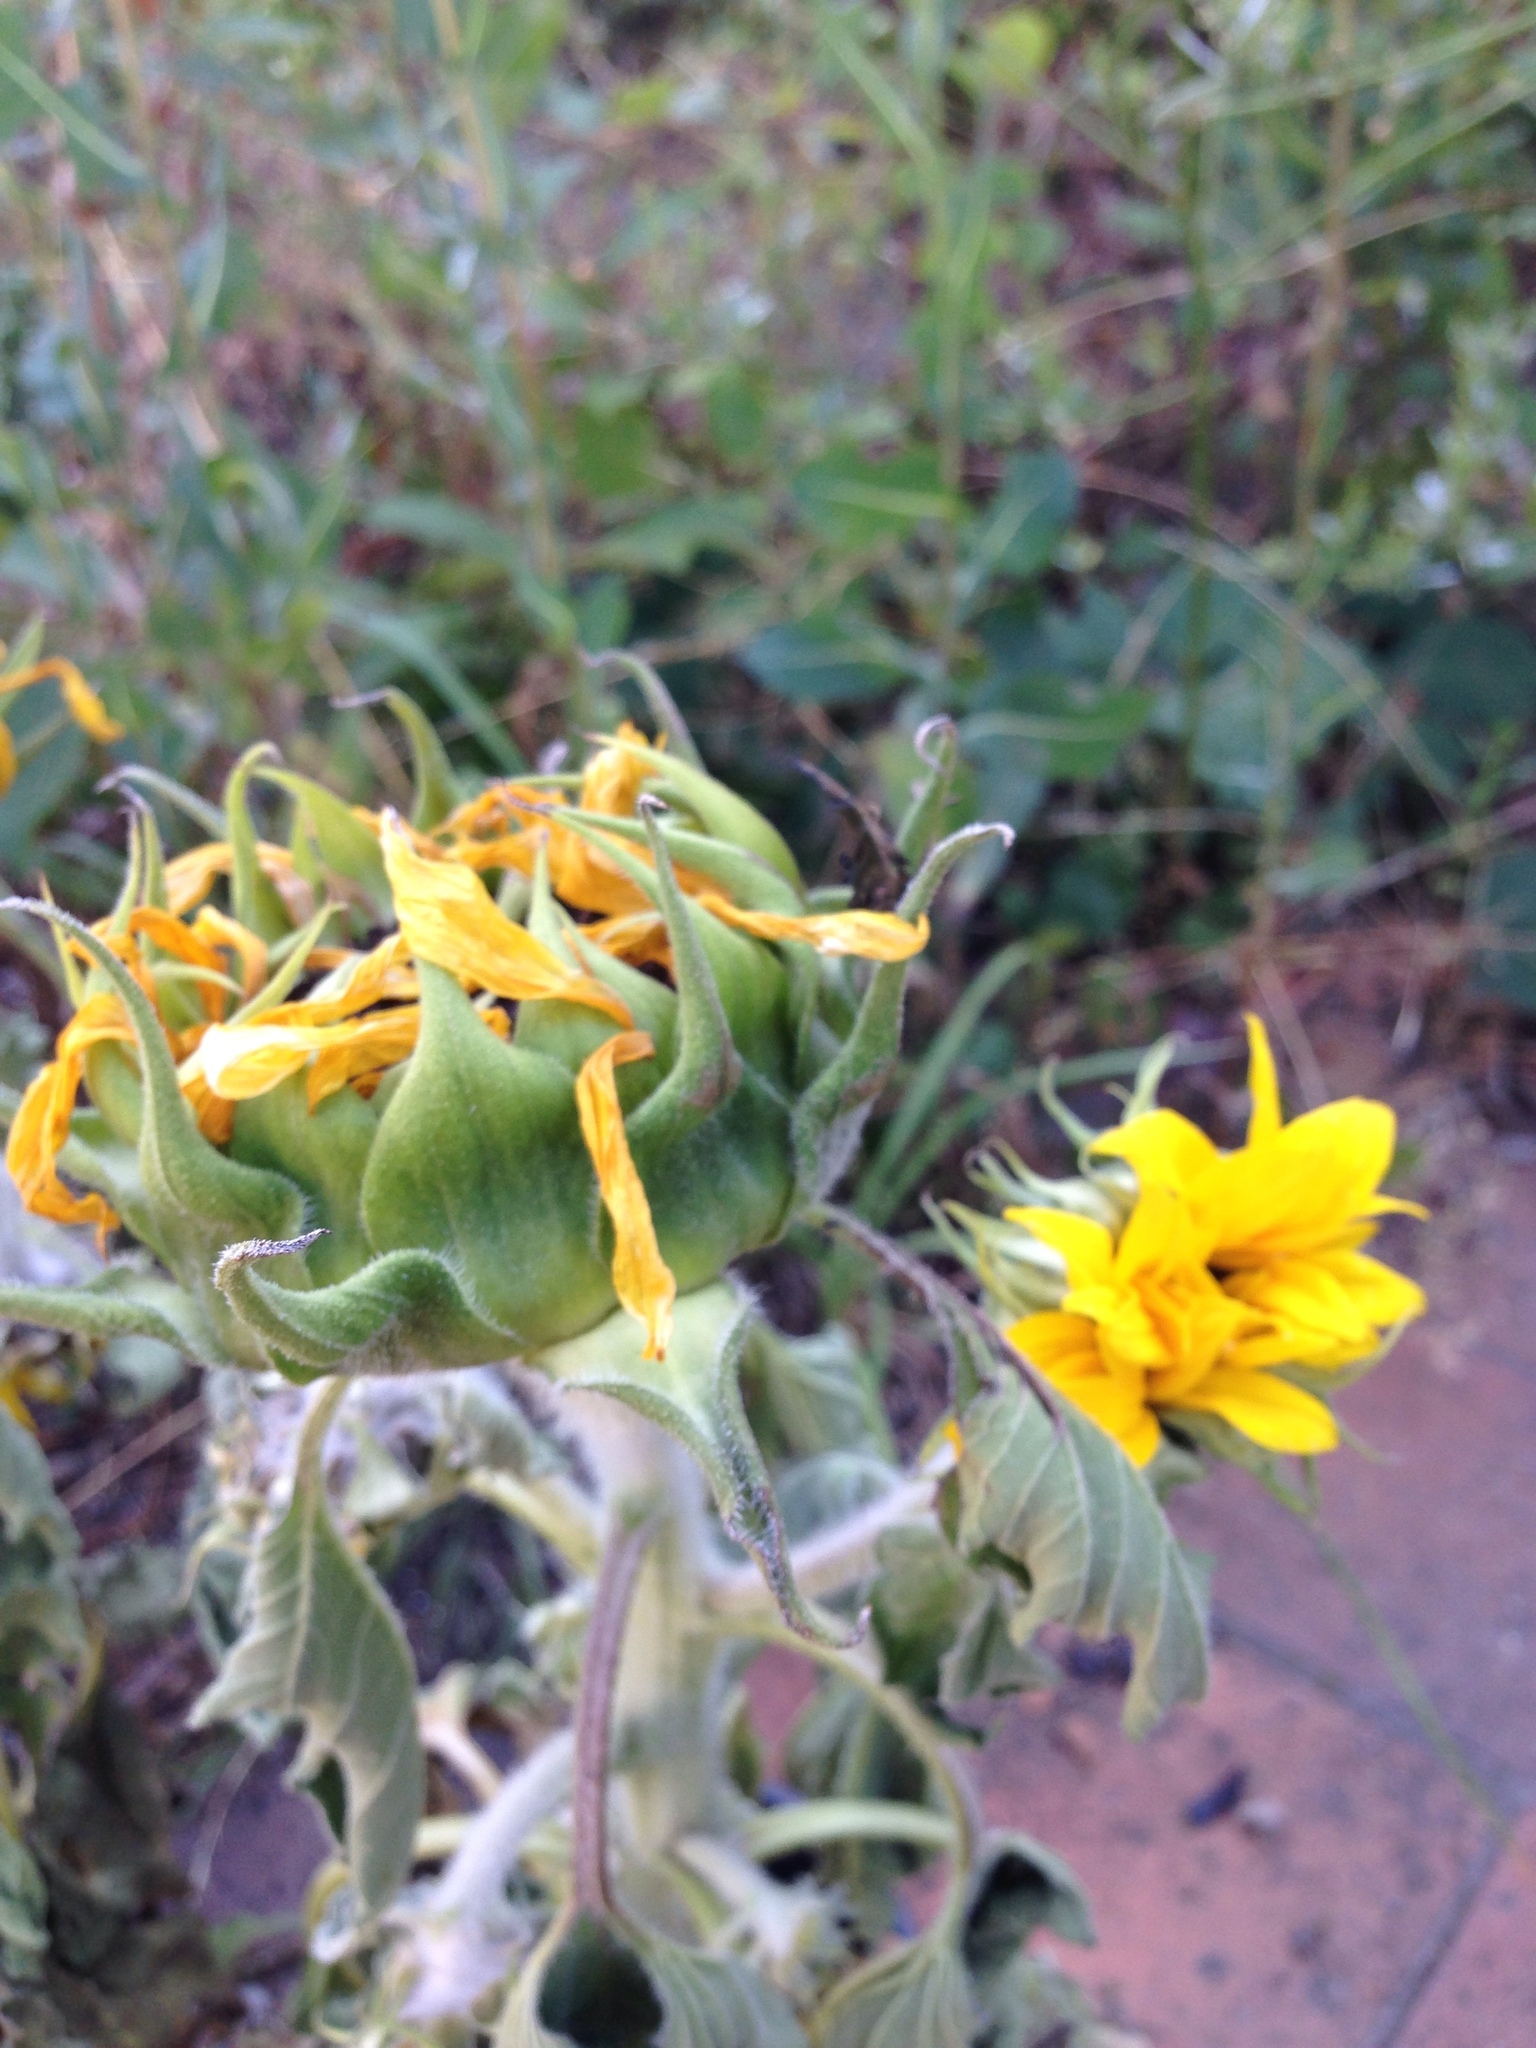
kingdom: Plantae
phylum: Tracheophyta
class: Magnoliopsida
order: Asterales
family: Asteraceae
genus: Helianthus
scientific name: Helianthus annuus
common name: Sunflower
